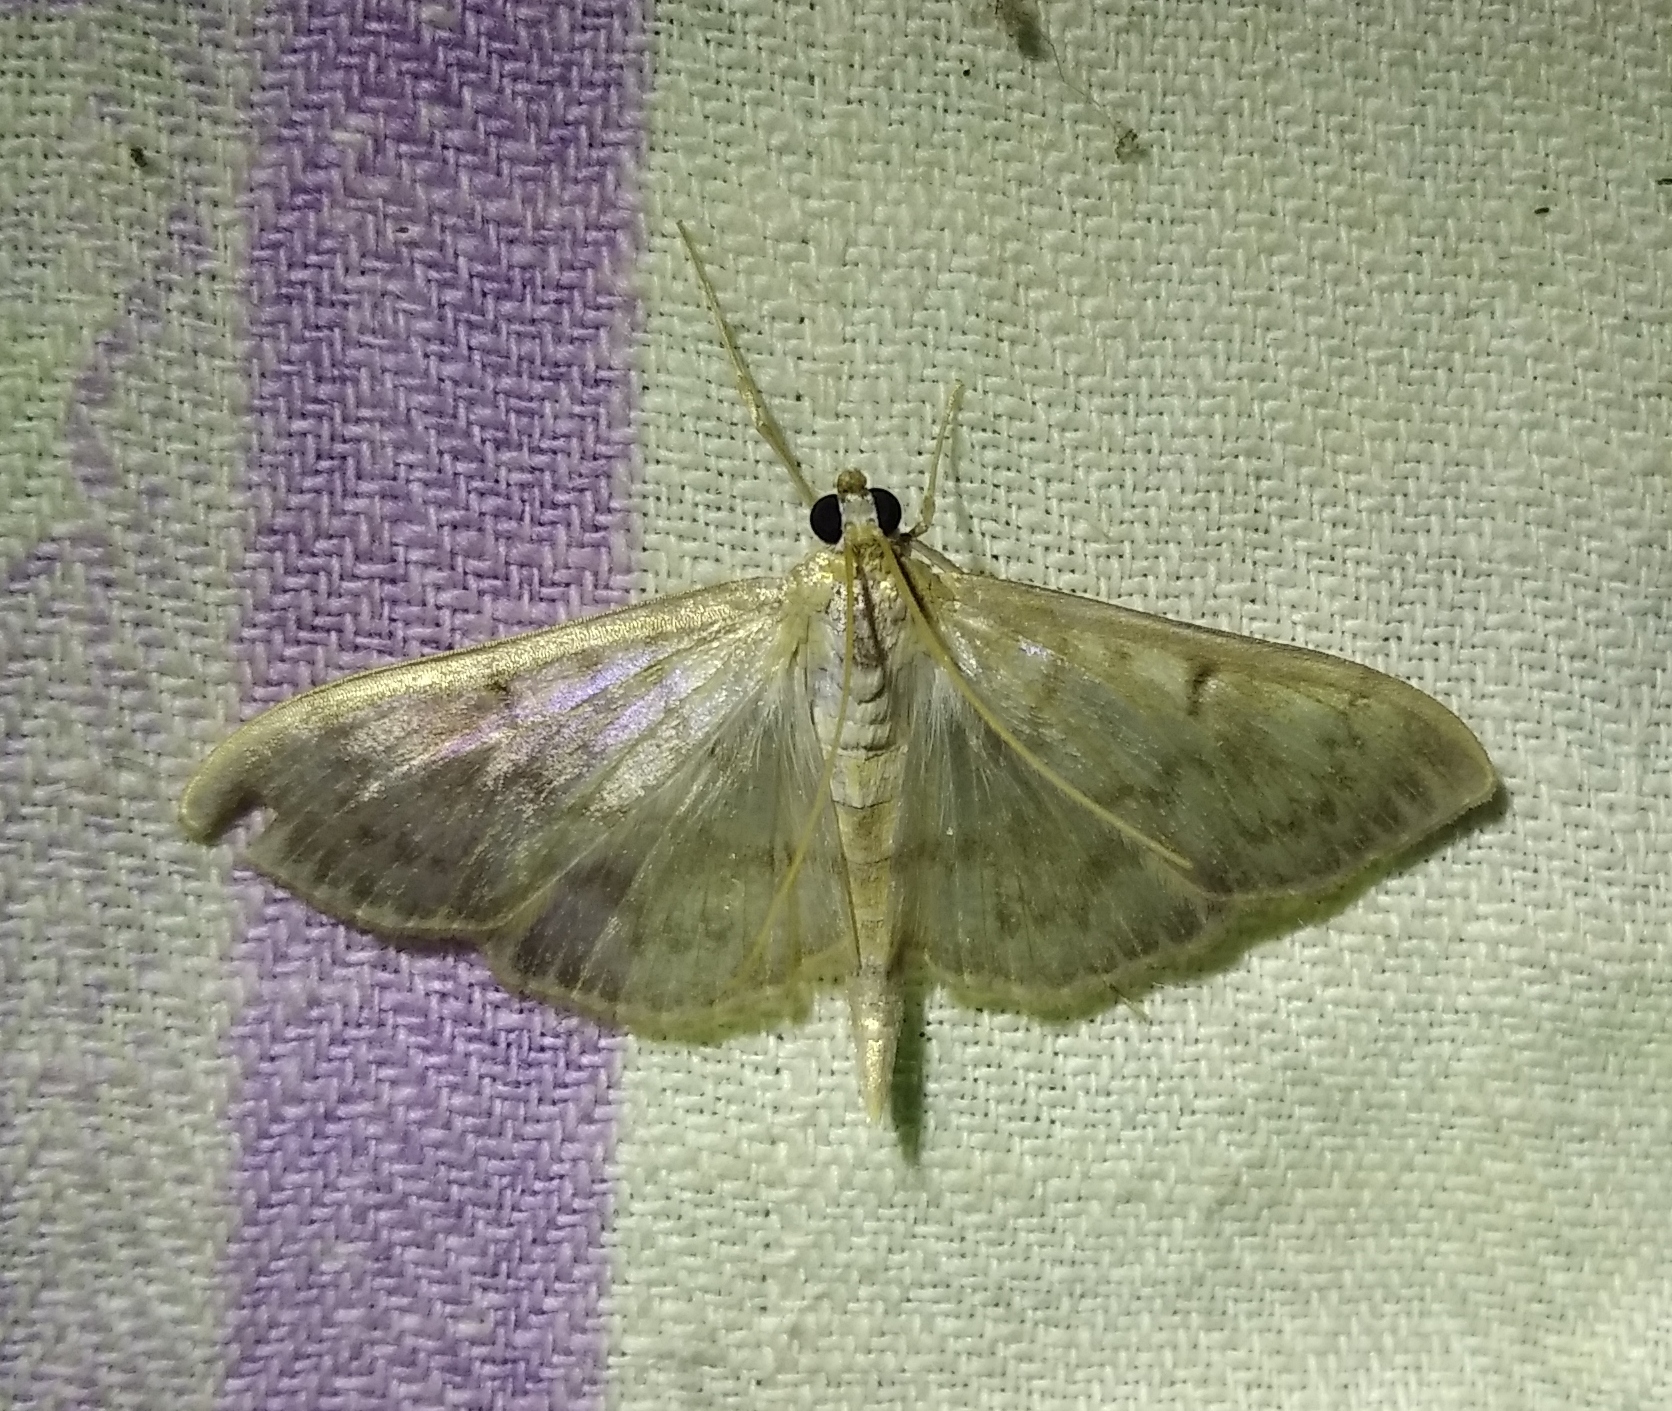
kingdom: Animalia
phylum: Arthropoda
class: Insecta
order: Lepidoptera
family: Crambidae
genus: Patania
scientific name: Patania ruralis
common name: Mother of pearl
